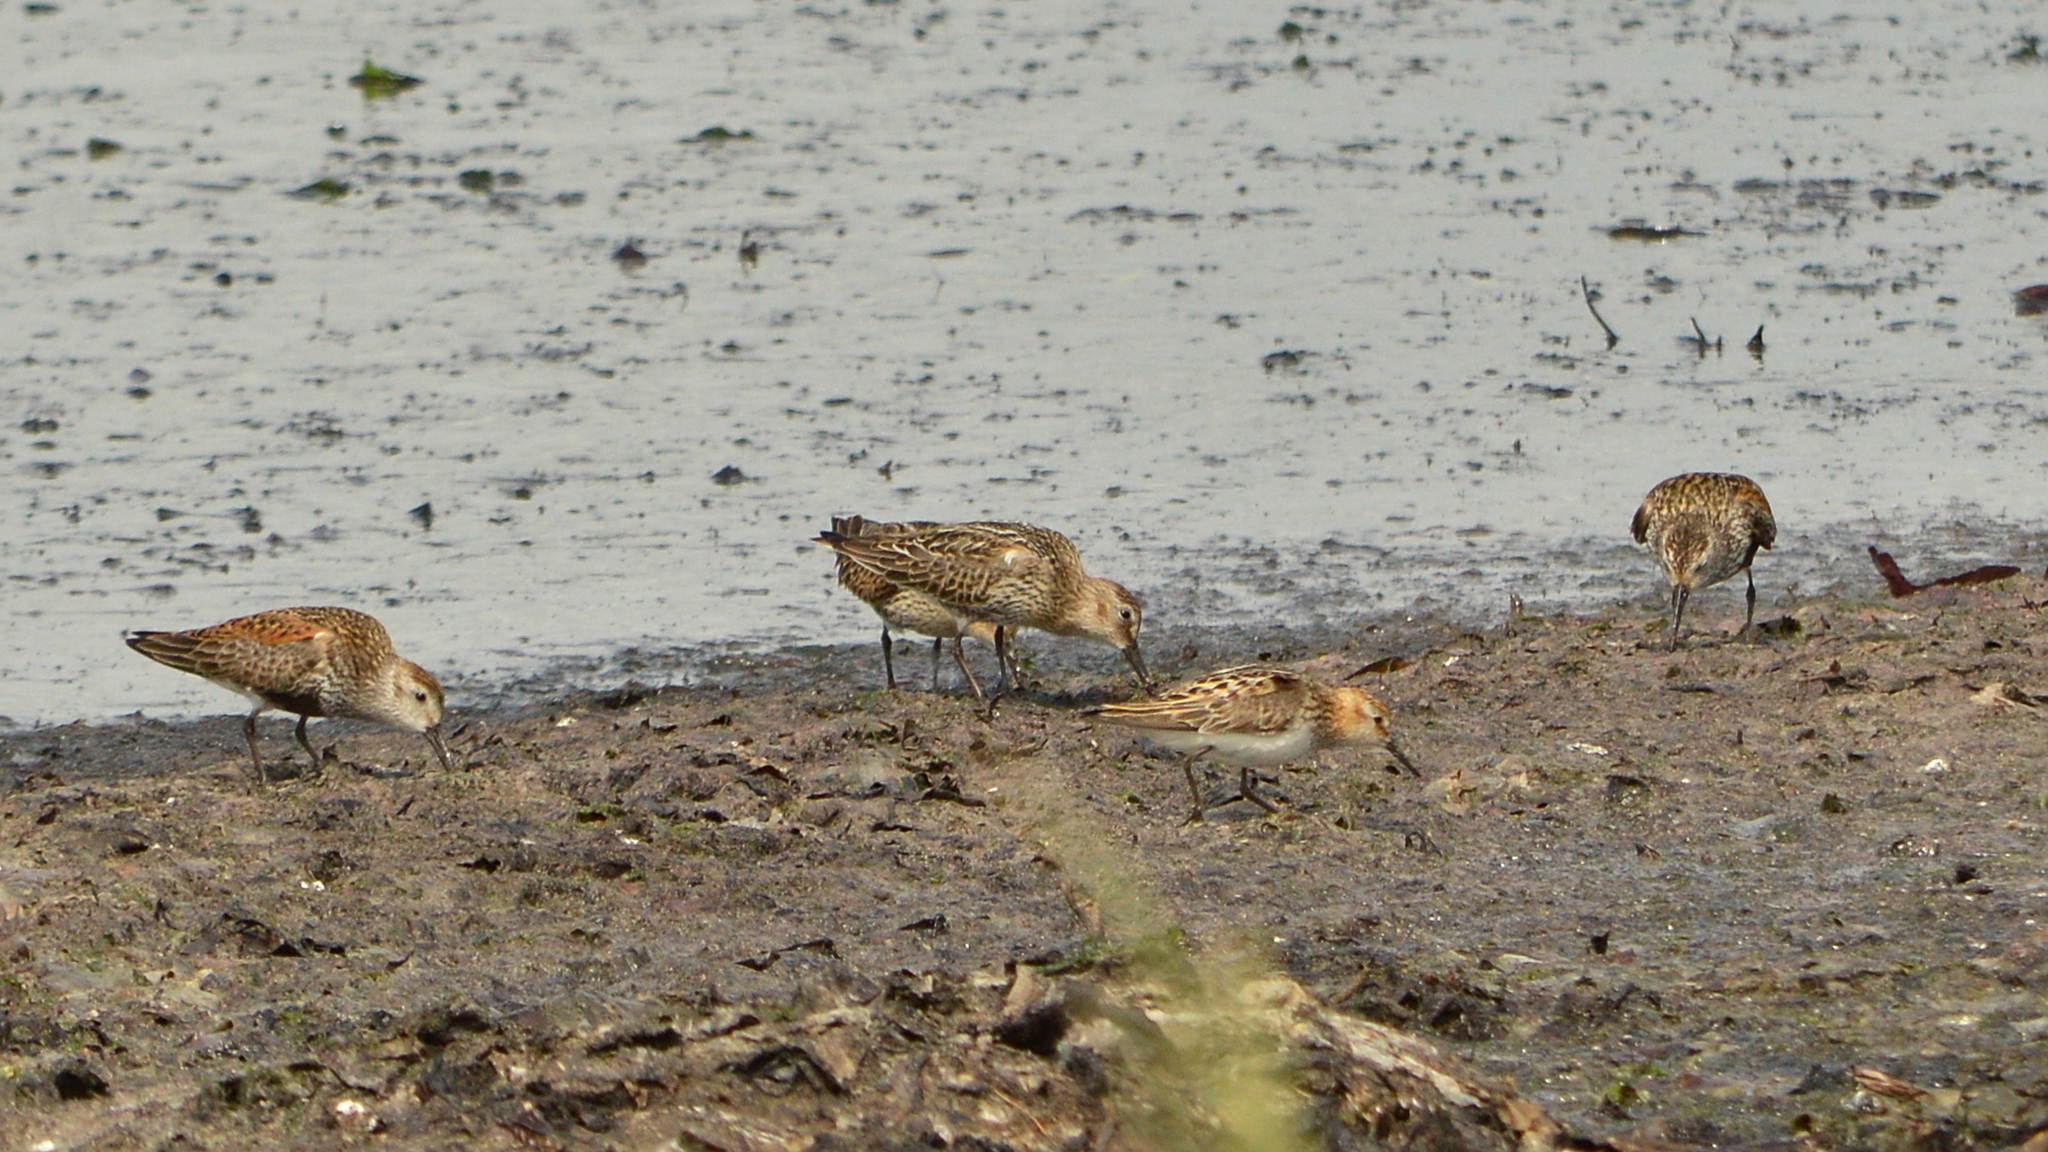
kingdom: Animalia
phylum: Chordata
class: Aves
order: Charadriiformes
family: Scolopacidae
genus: Calidris
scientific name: Calidris alpina
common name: Dunlin
